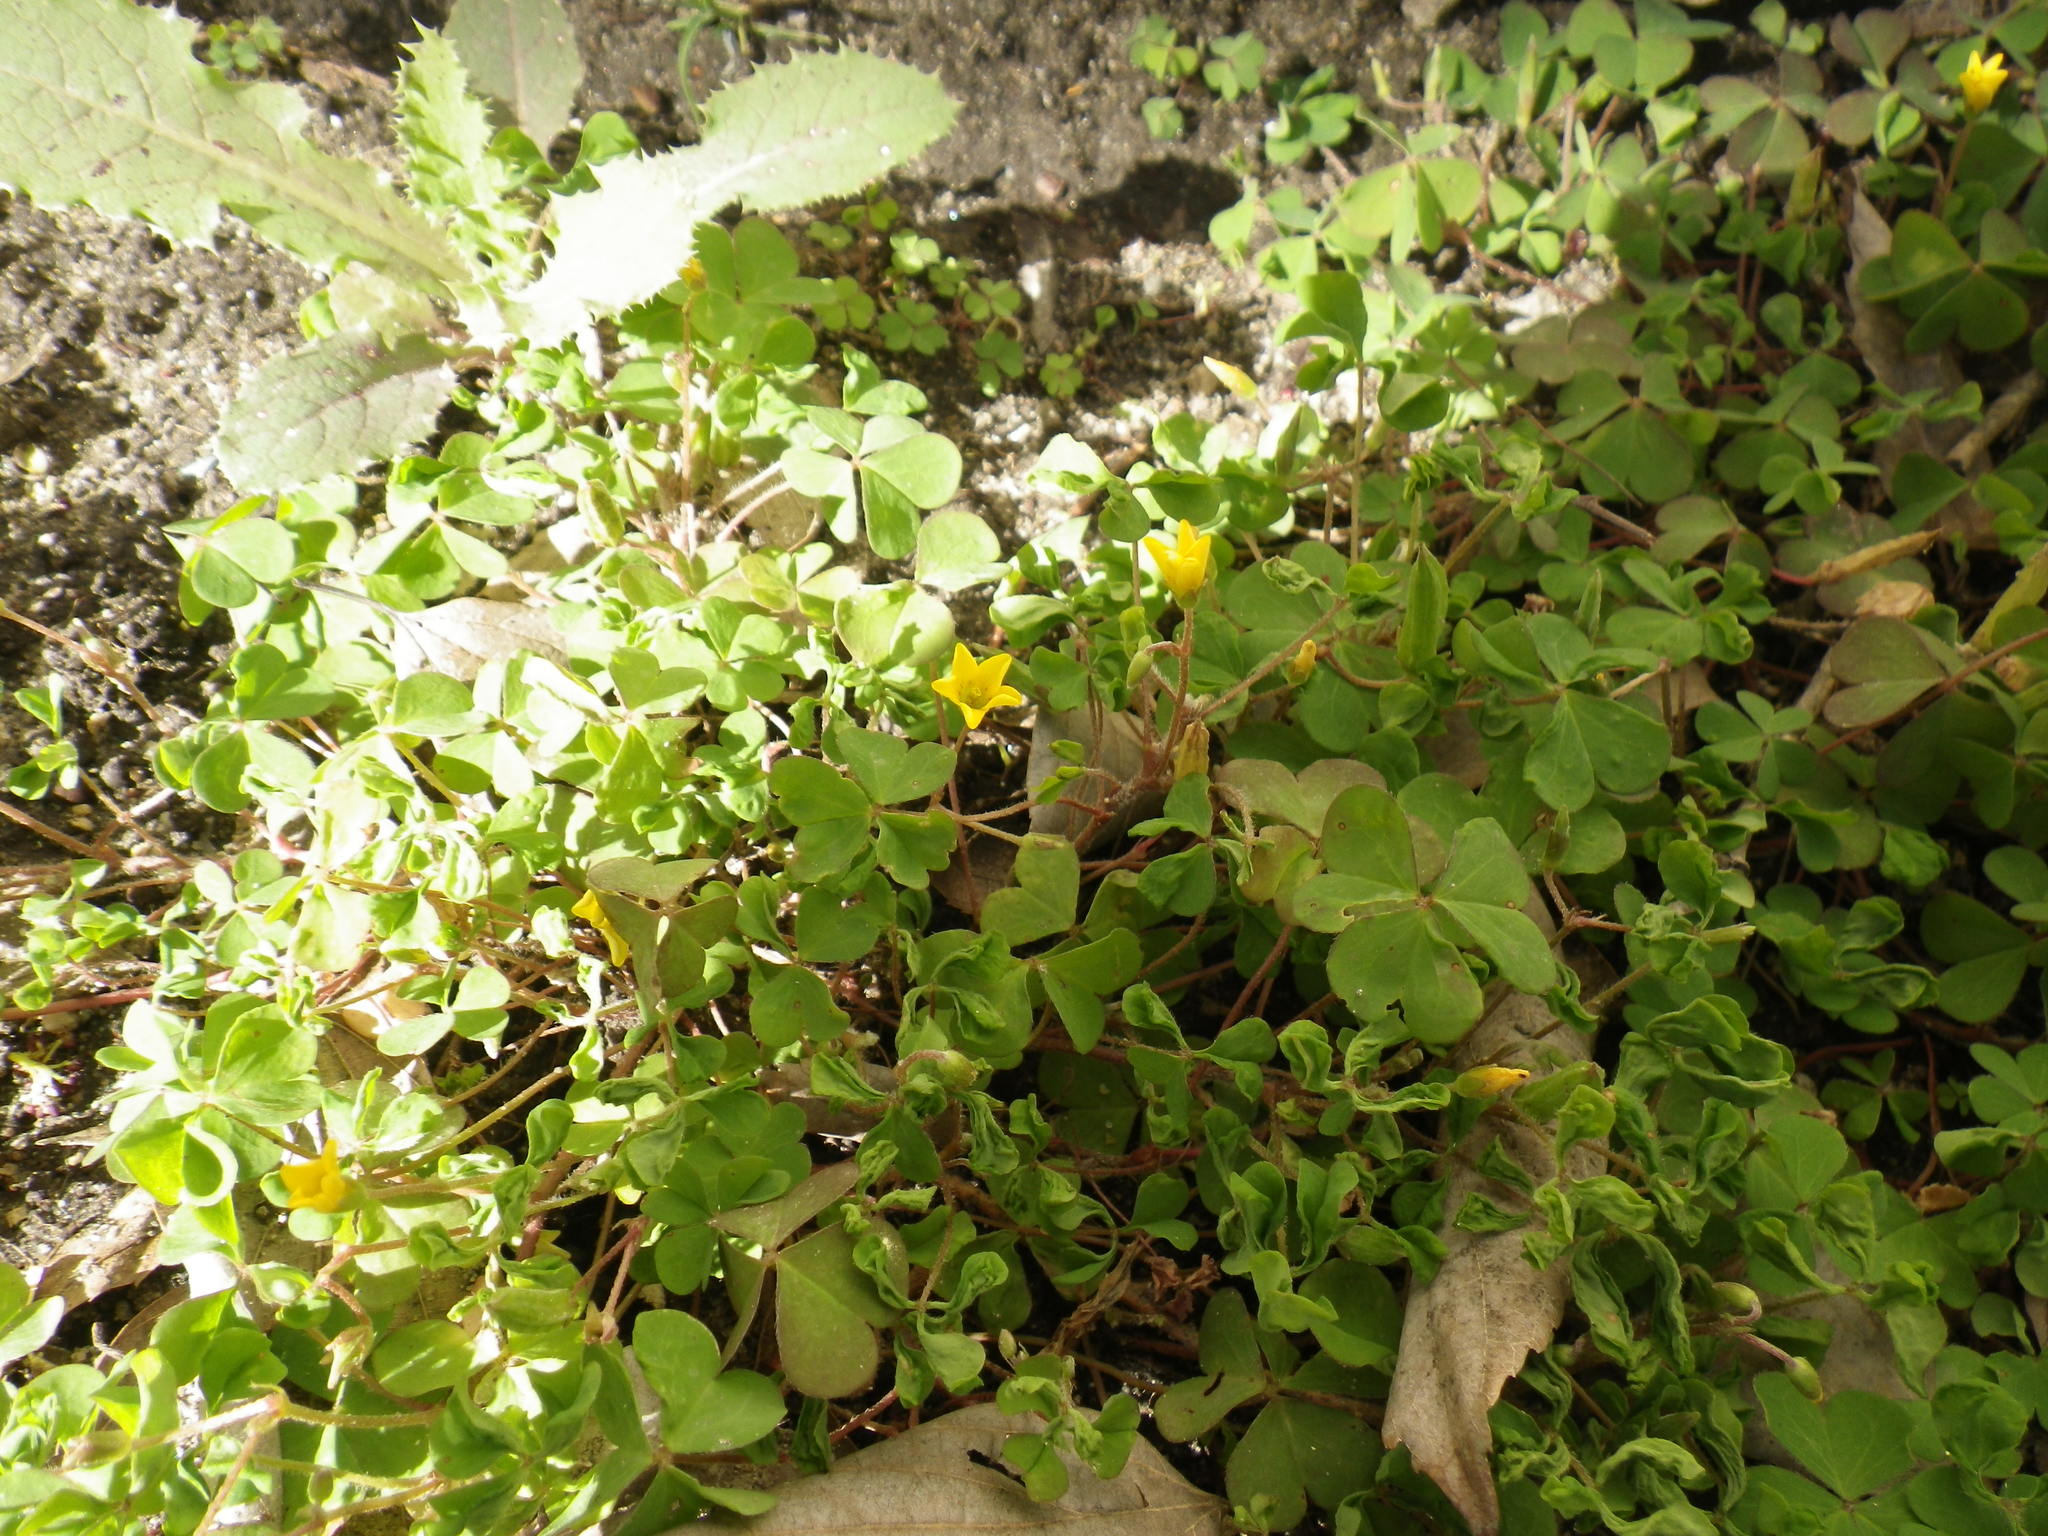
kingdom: Plantae
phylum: Tracheophyta
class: Magnoliopsida
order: Oxalidales
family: Oxalidaceae
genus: Oxalis
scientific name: Oxalis corniculata
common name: Procumbent yellow-sorrel
